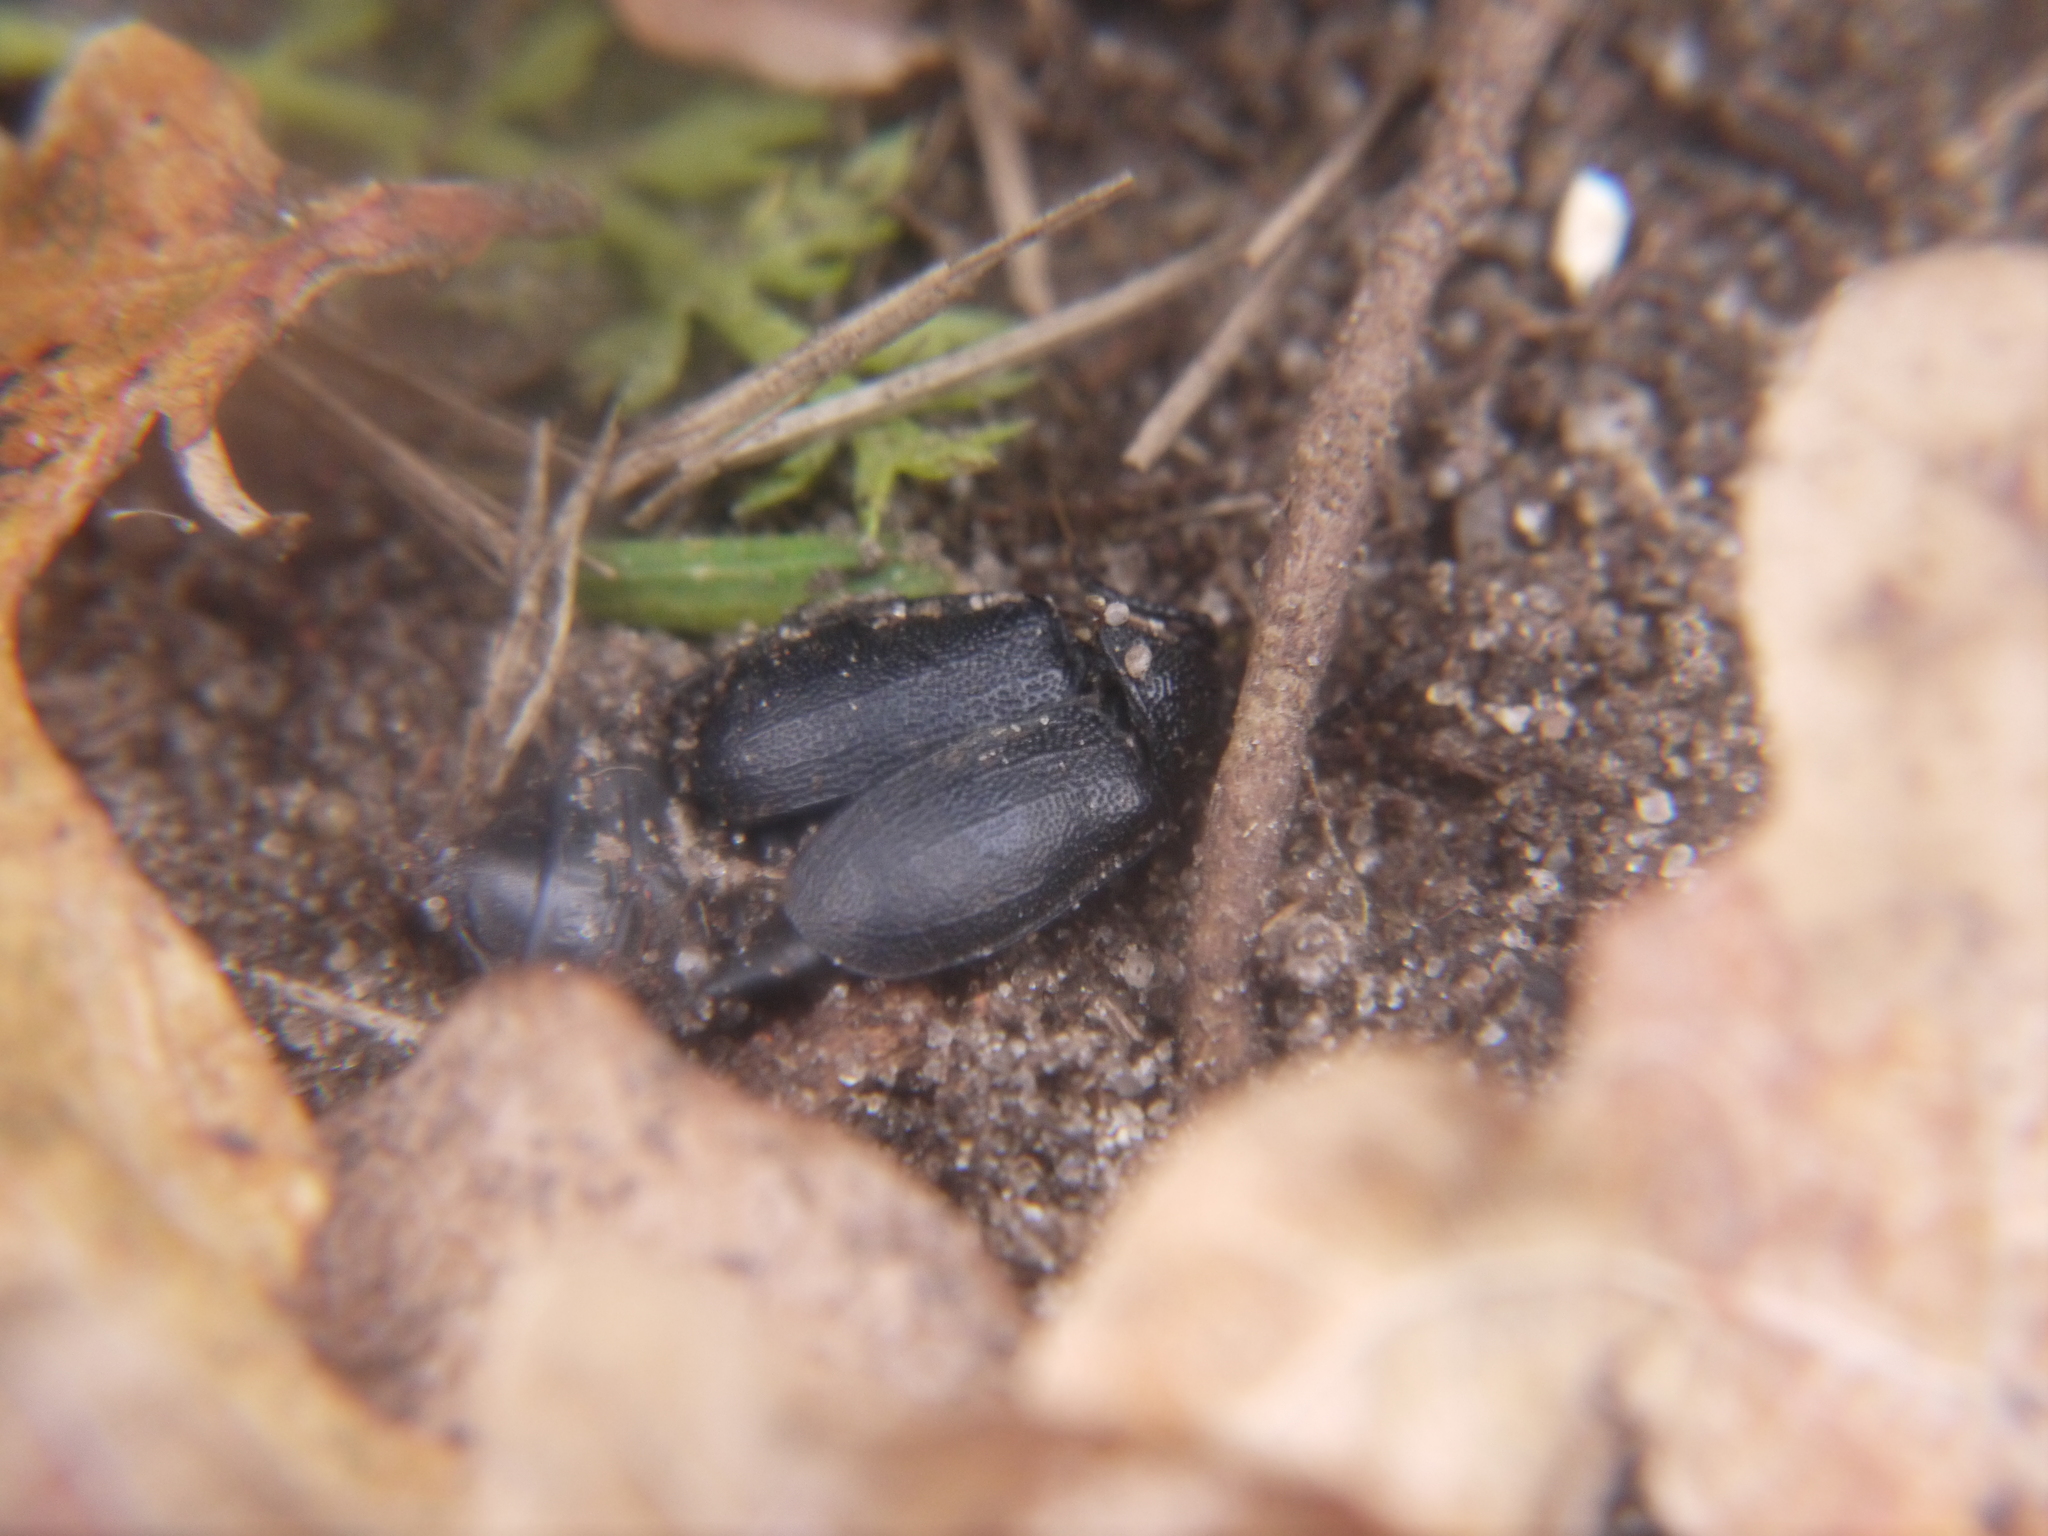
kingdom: Animalia
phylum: Arthropoda
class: Insecta
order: Coleoptera
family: Chrysomelidae
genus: Galeruca
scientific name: Galeruca tanaceti
